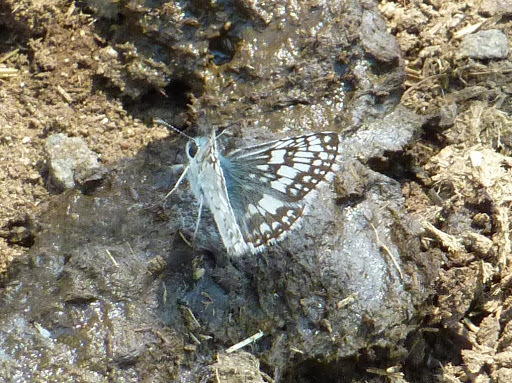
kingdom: Animalia
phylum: Arthropoda
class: Insecta
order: Lepidoptera
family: Hesperiidae
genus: Burnsius
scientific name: Burnsius communis
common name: Common checkered-skipper
